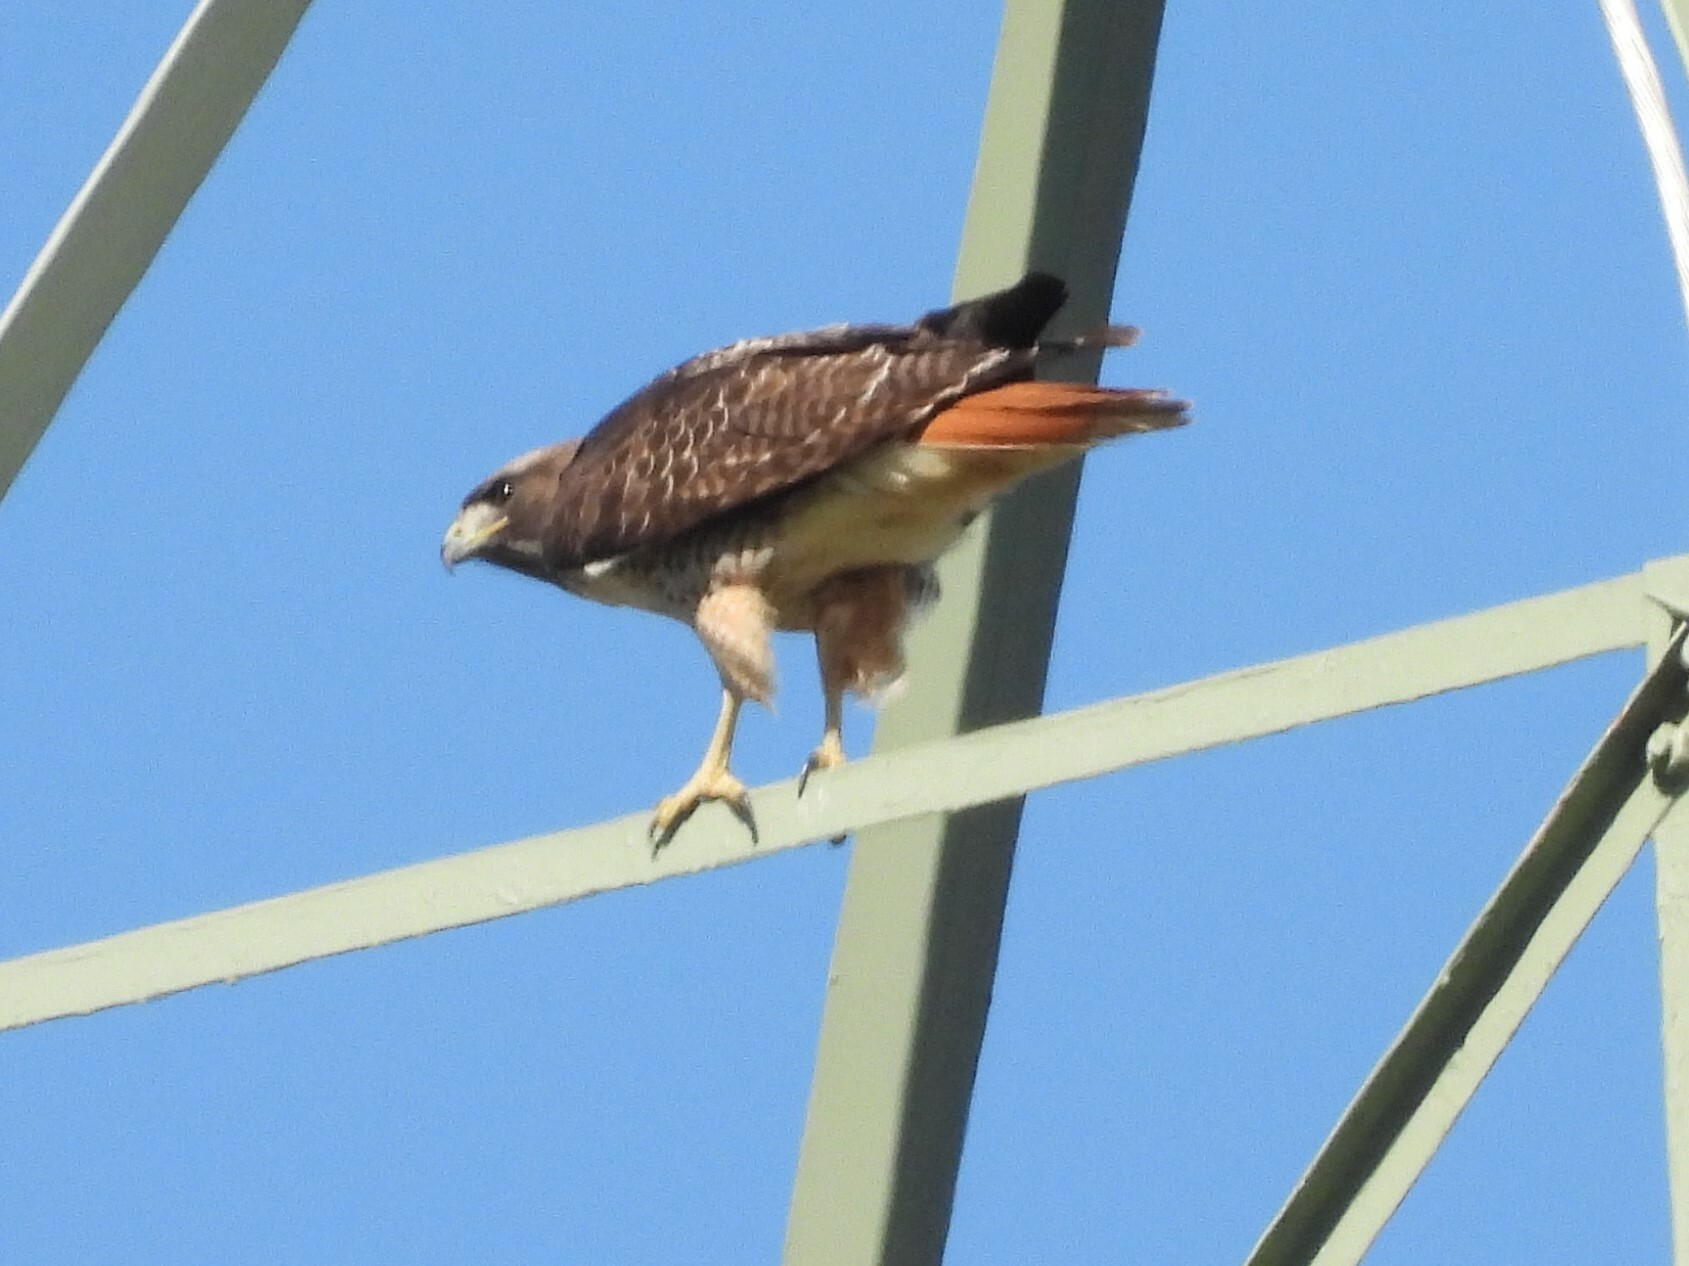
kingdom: Animalia
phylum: Chordata
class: Aves
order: Accipitriformes
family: Accipitridae
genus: Buteo
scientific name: Buteo jamaicensis
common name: Red-tailed hawk
